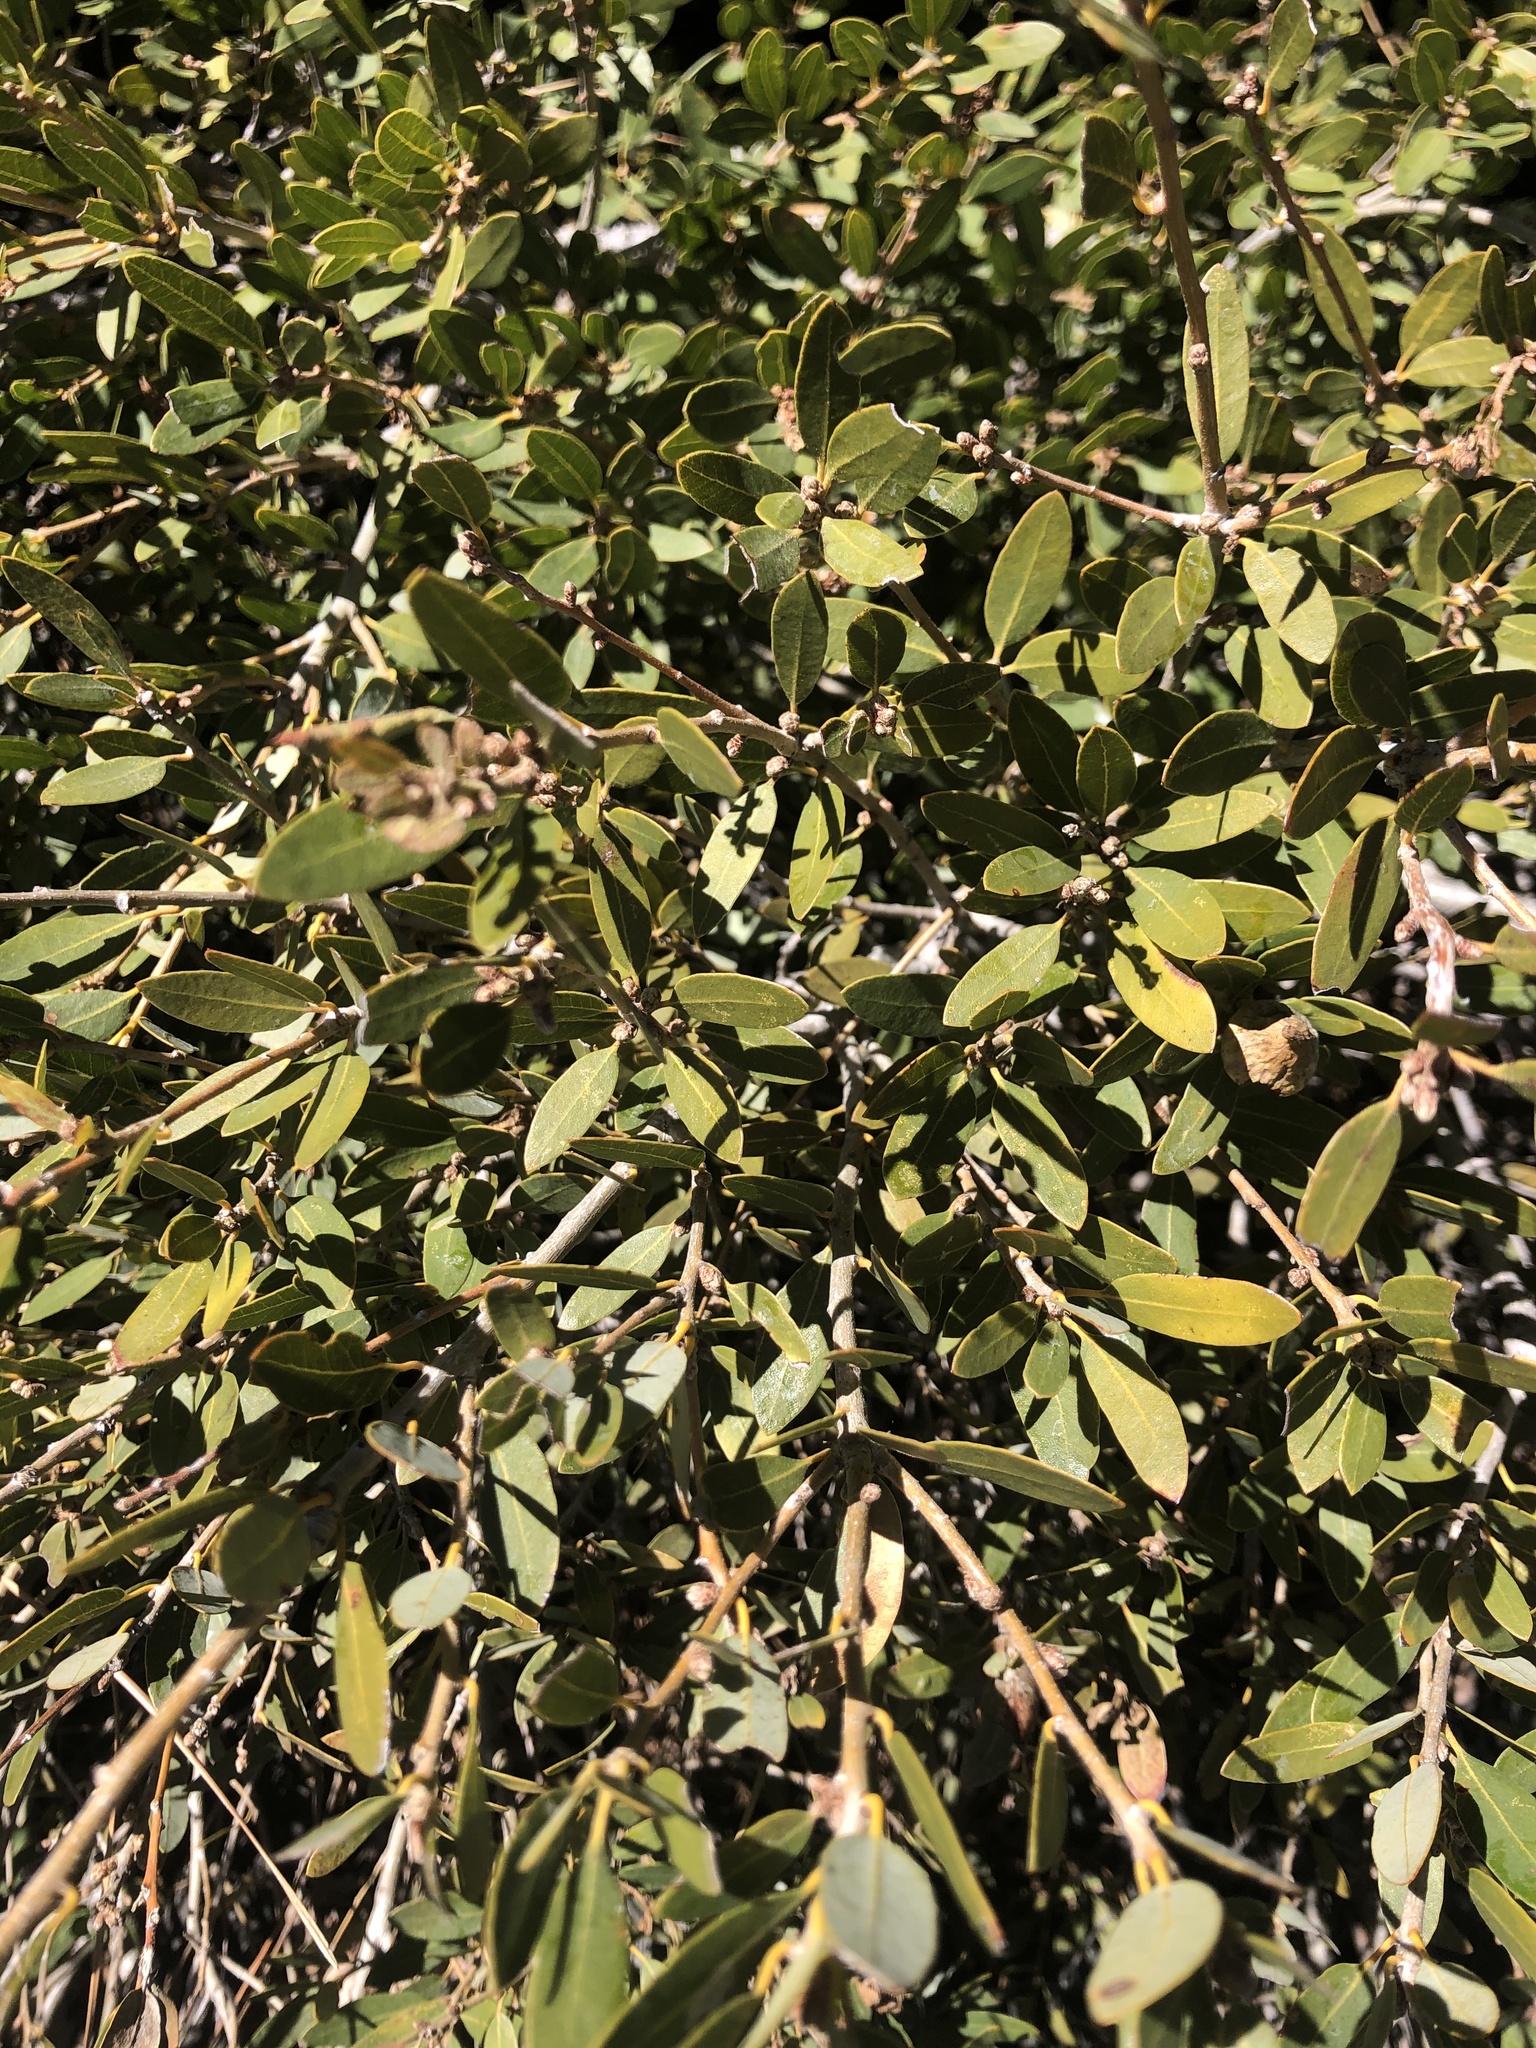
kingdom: Plantae
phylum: Tracheophyta
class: Magnoliopsida
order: Fagales
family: Fagaceae
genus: Quercus
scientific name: Quercus vacciniifolia
